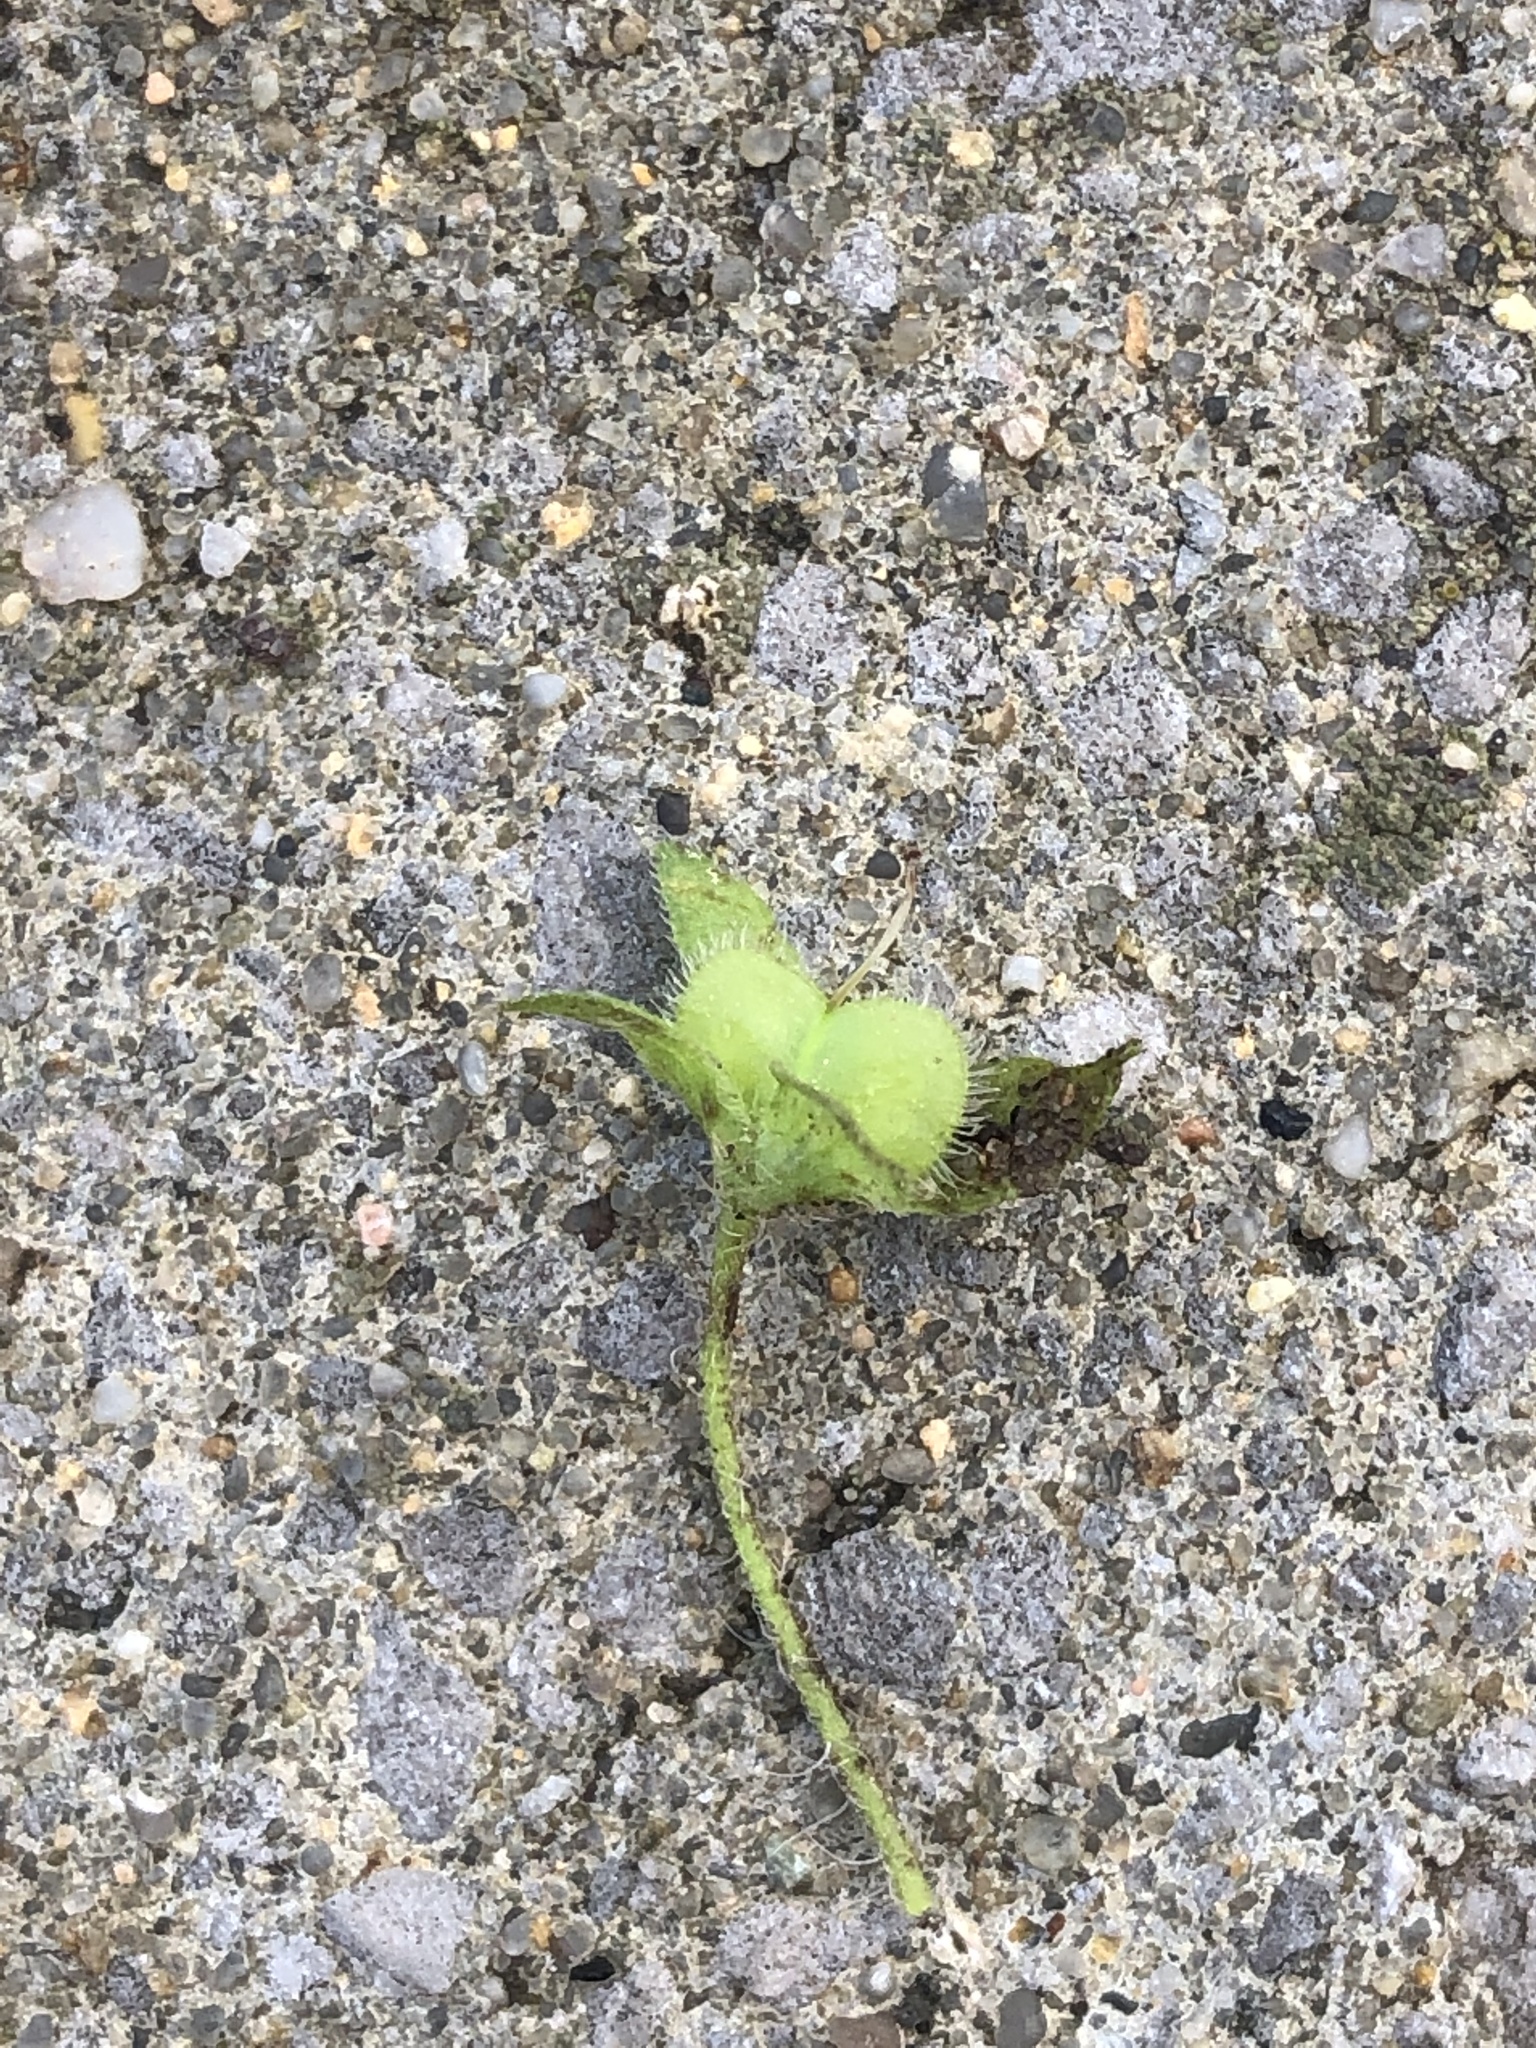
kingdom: Plantae
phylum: Tracheophyta
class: Magnoliopsida
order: Lamiales
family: Plantaginaceae
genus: Veronica
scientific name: Veronica persica
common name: Common field-speedwell
